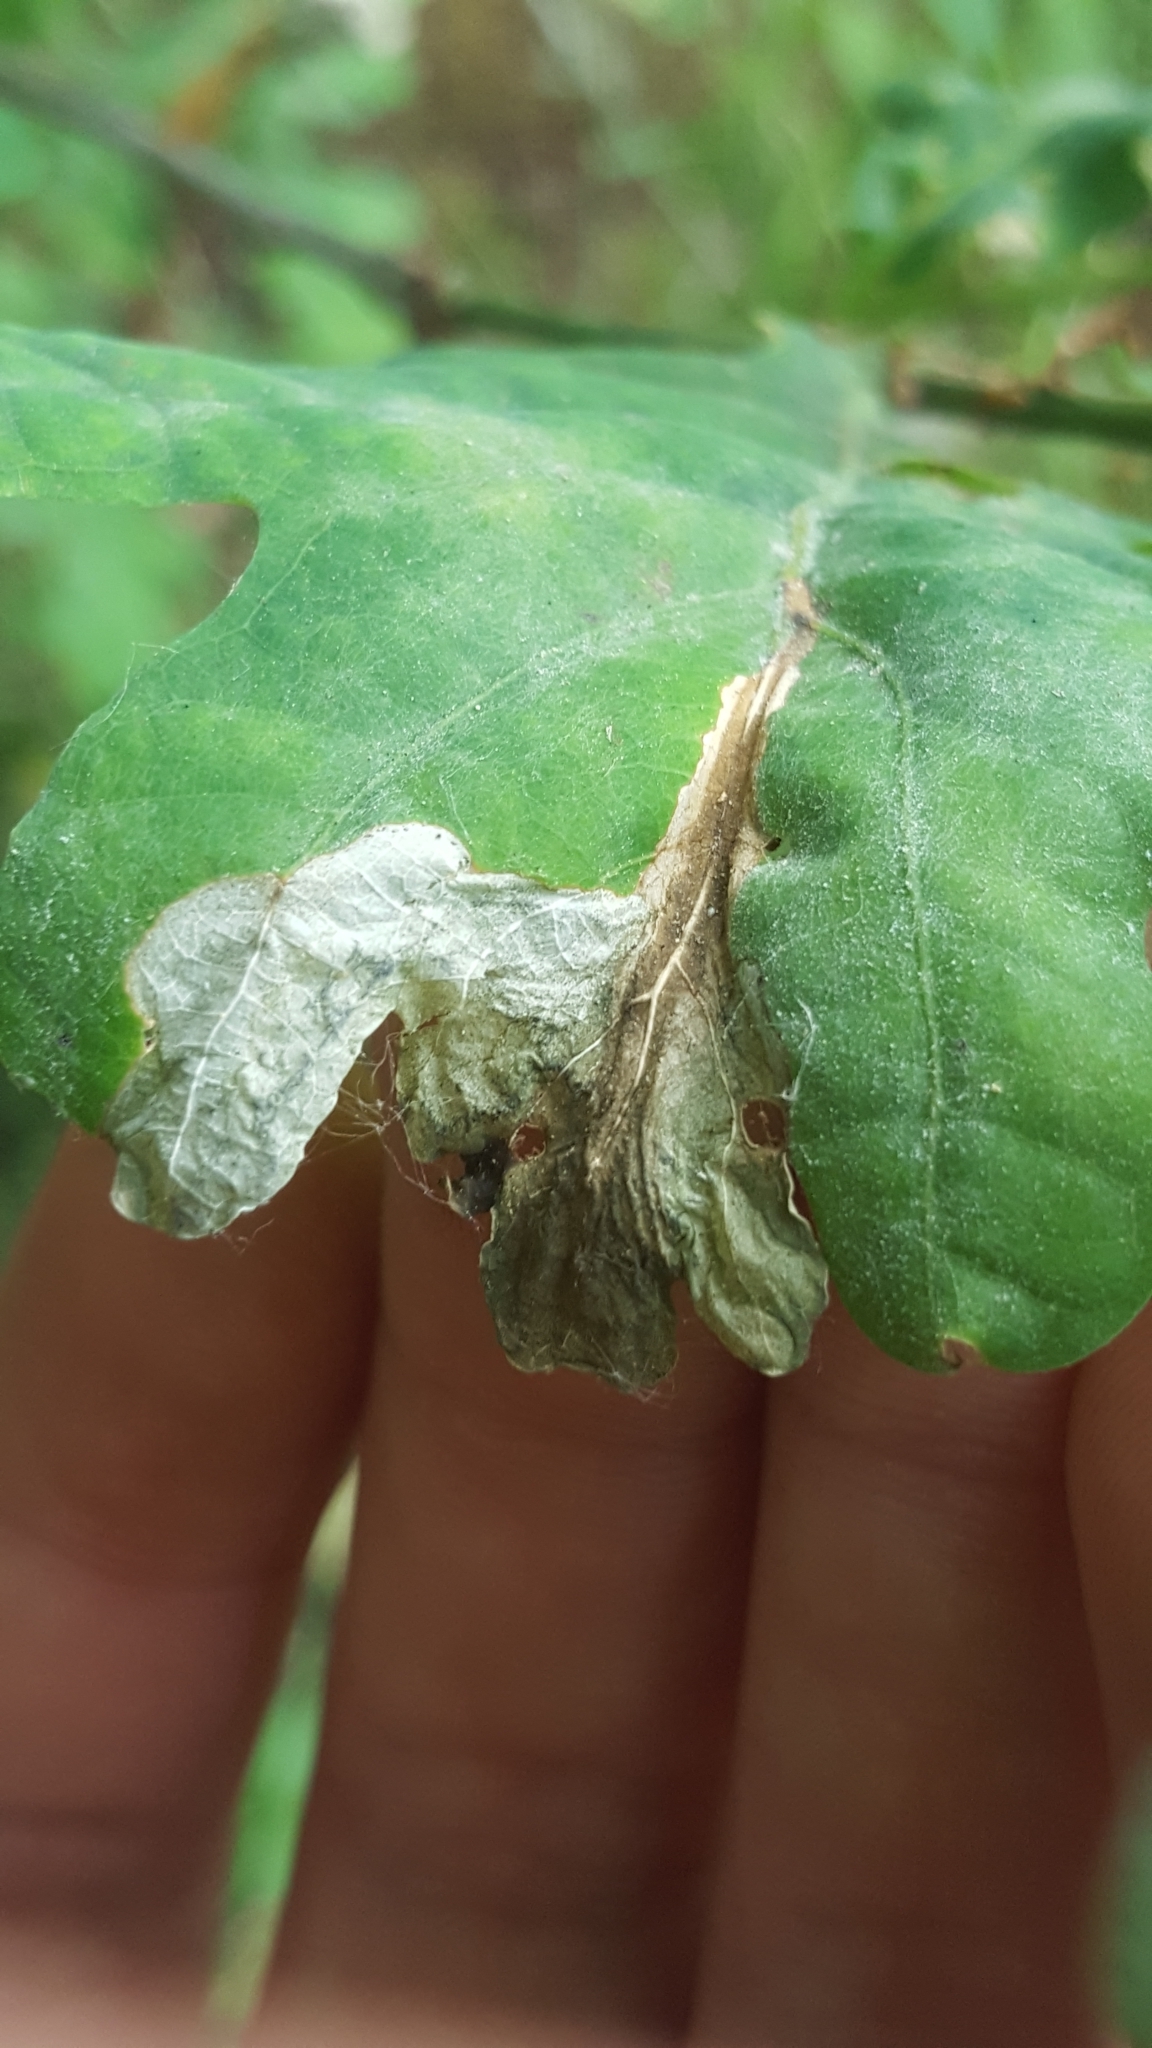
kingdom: Animalia
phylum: Arthropoda
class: Insecta
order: Coleoptera
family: Curculionidae
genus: Orchestes
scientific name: Orchestes quercus
